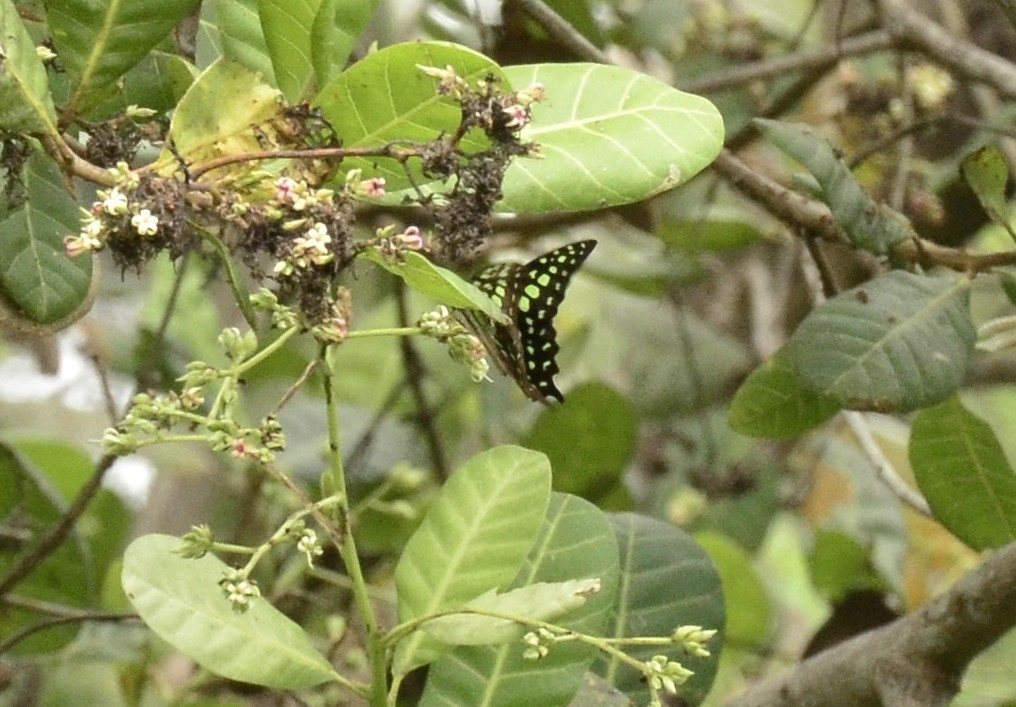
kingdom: Animalia
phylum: Arthropoda
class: Insecta
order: Lepidoptera
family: Papilionidae
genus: Graphium
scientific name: Graphium agamemnon
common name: Tailed jay
